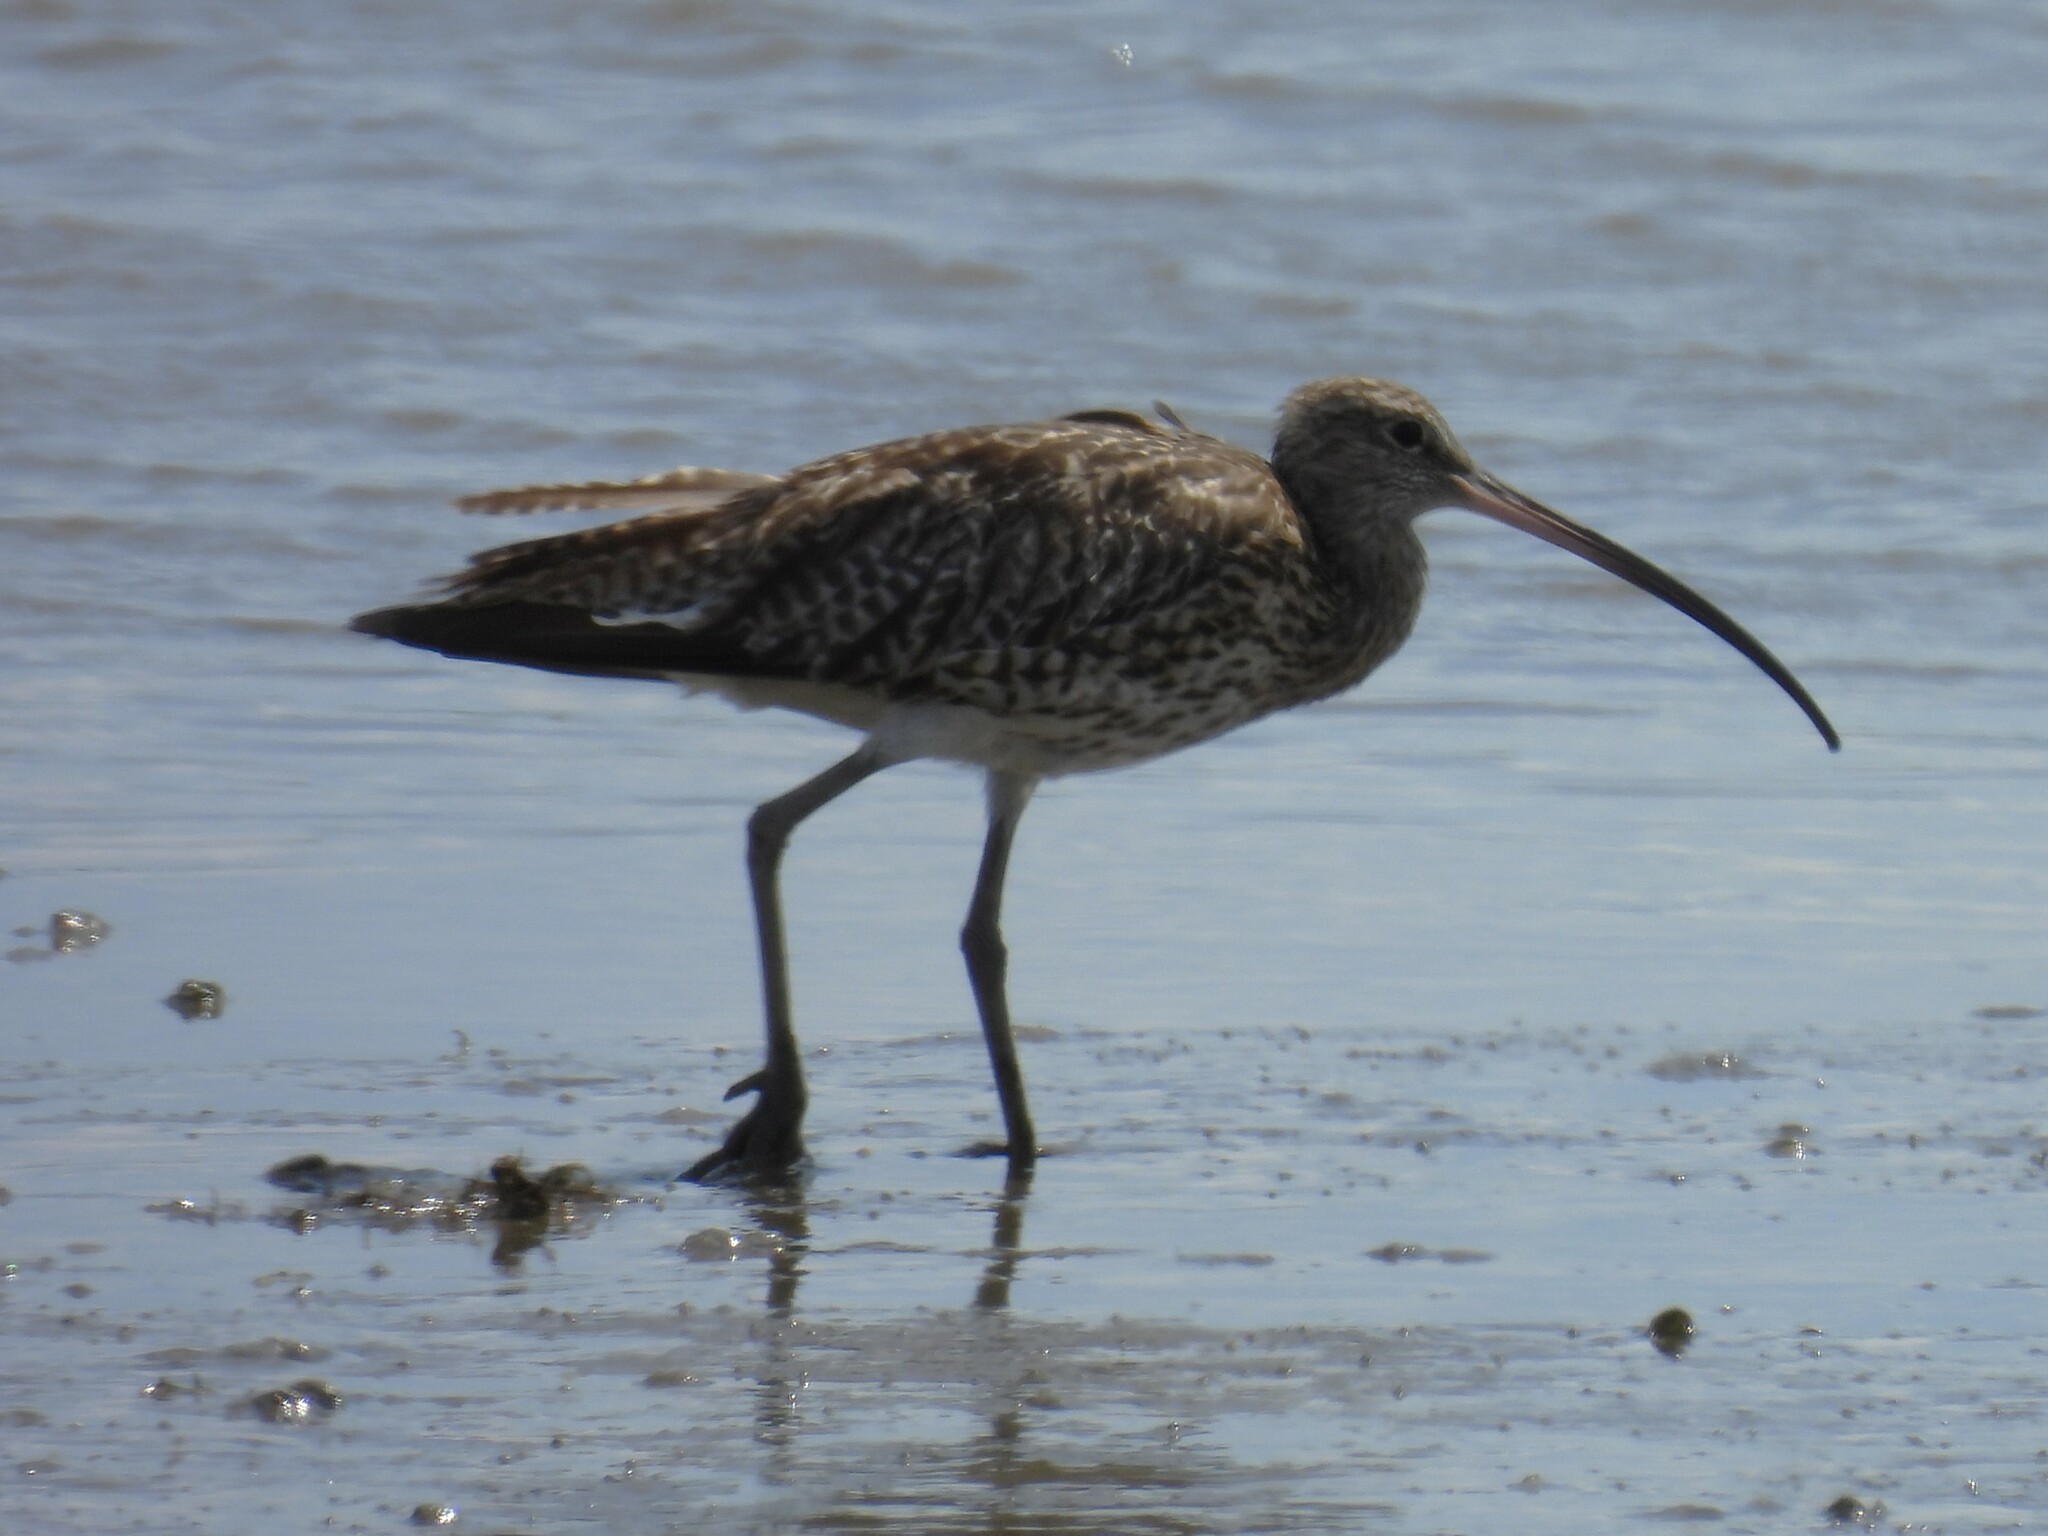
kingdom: Animalia
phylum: Chordata
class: Aves
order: Charadriiformes
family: Scolopacidae
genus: Numenius
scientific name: Numenius arquata
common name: Eurasian curlew
